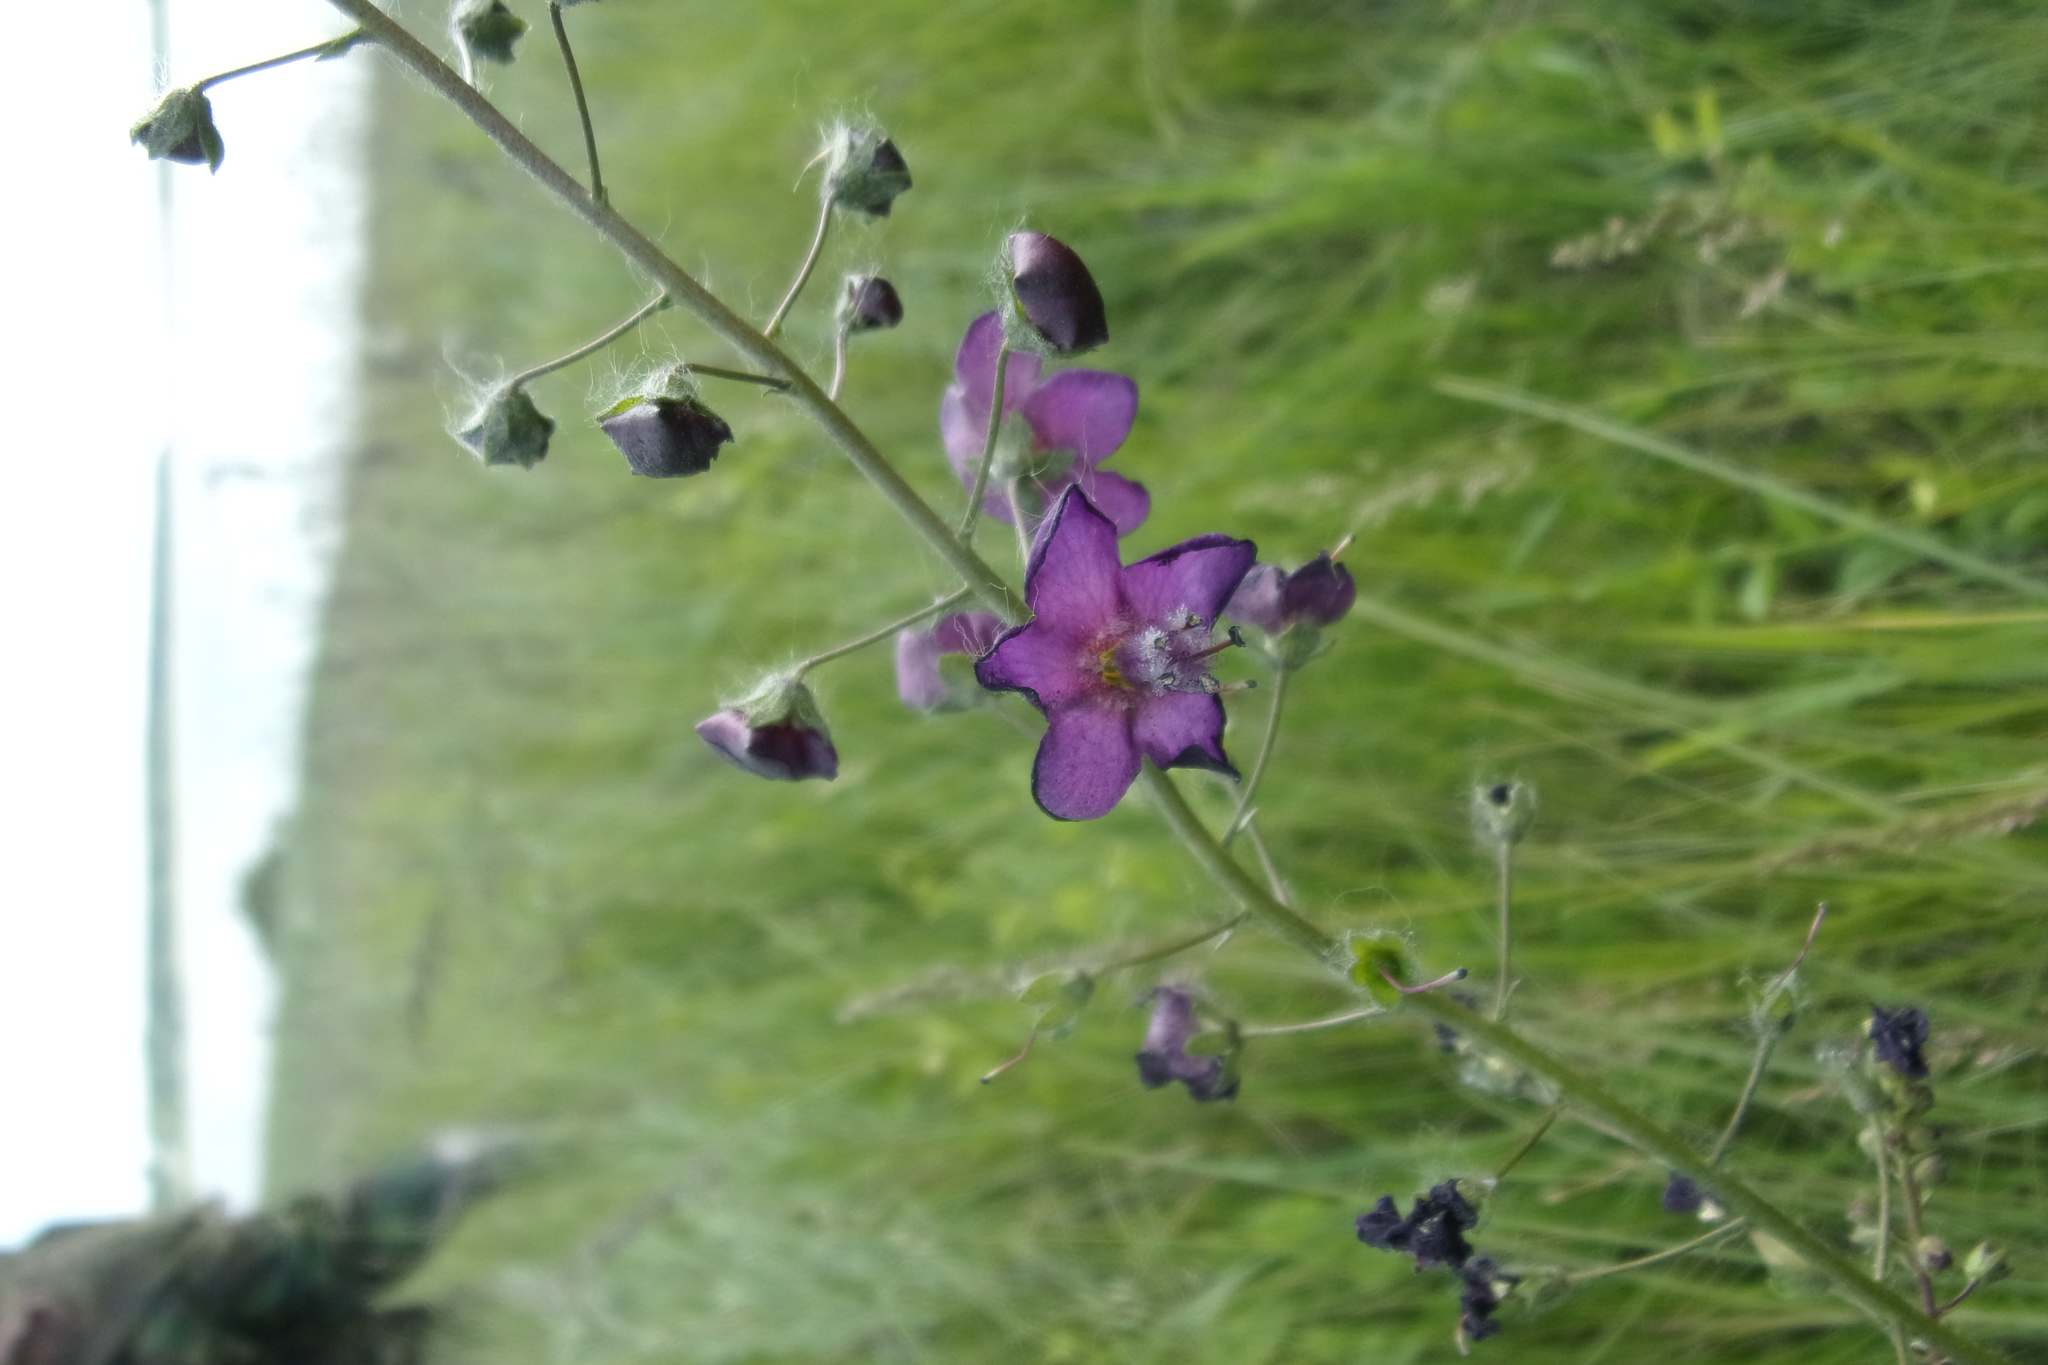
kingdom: Plantae
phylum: Tracheophyta
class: Magnoliopsida
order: Lamiales
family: Scrophulariaceae
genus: Verbascum
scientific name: Verbascum phoeniceum
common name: Purple mullein
